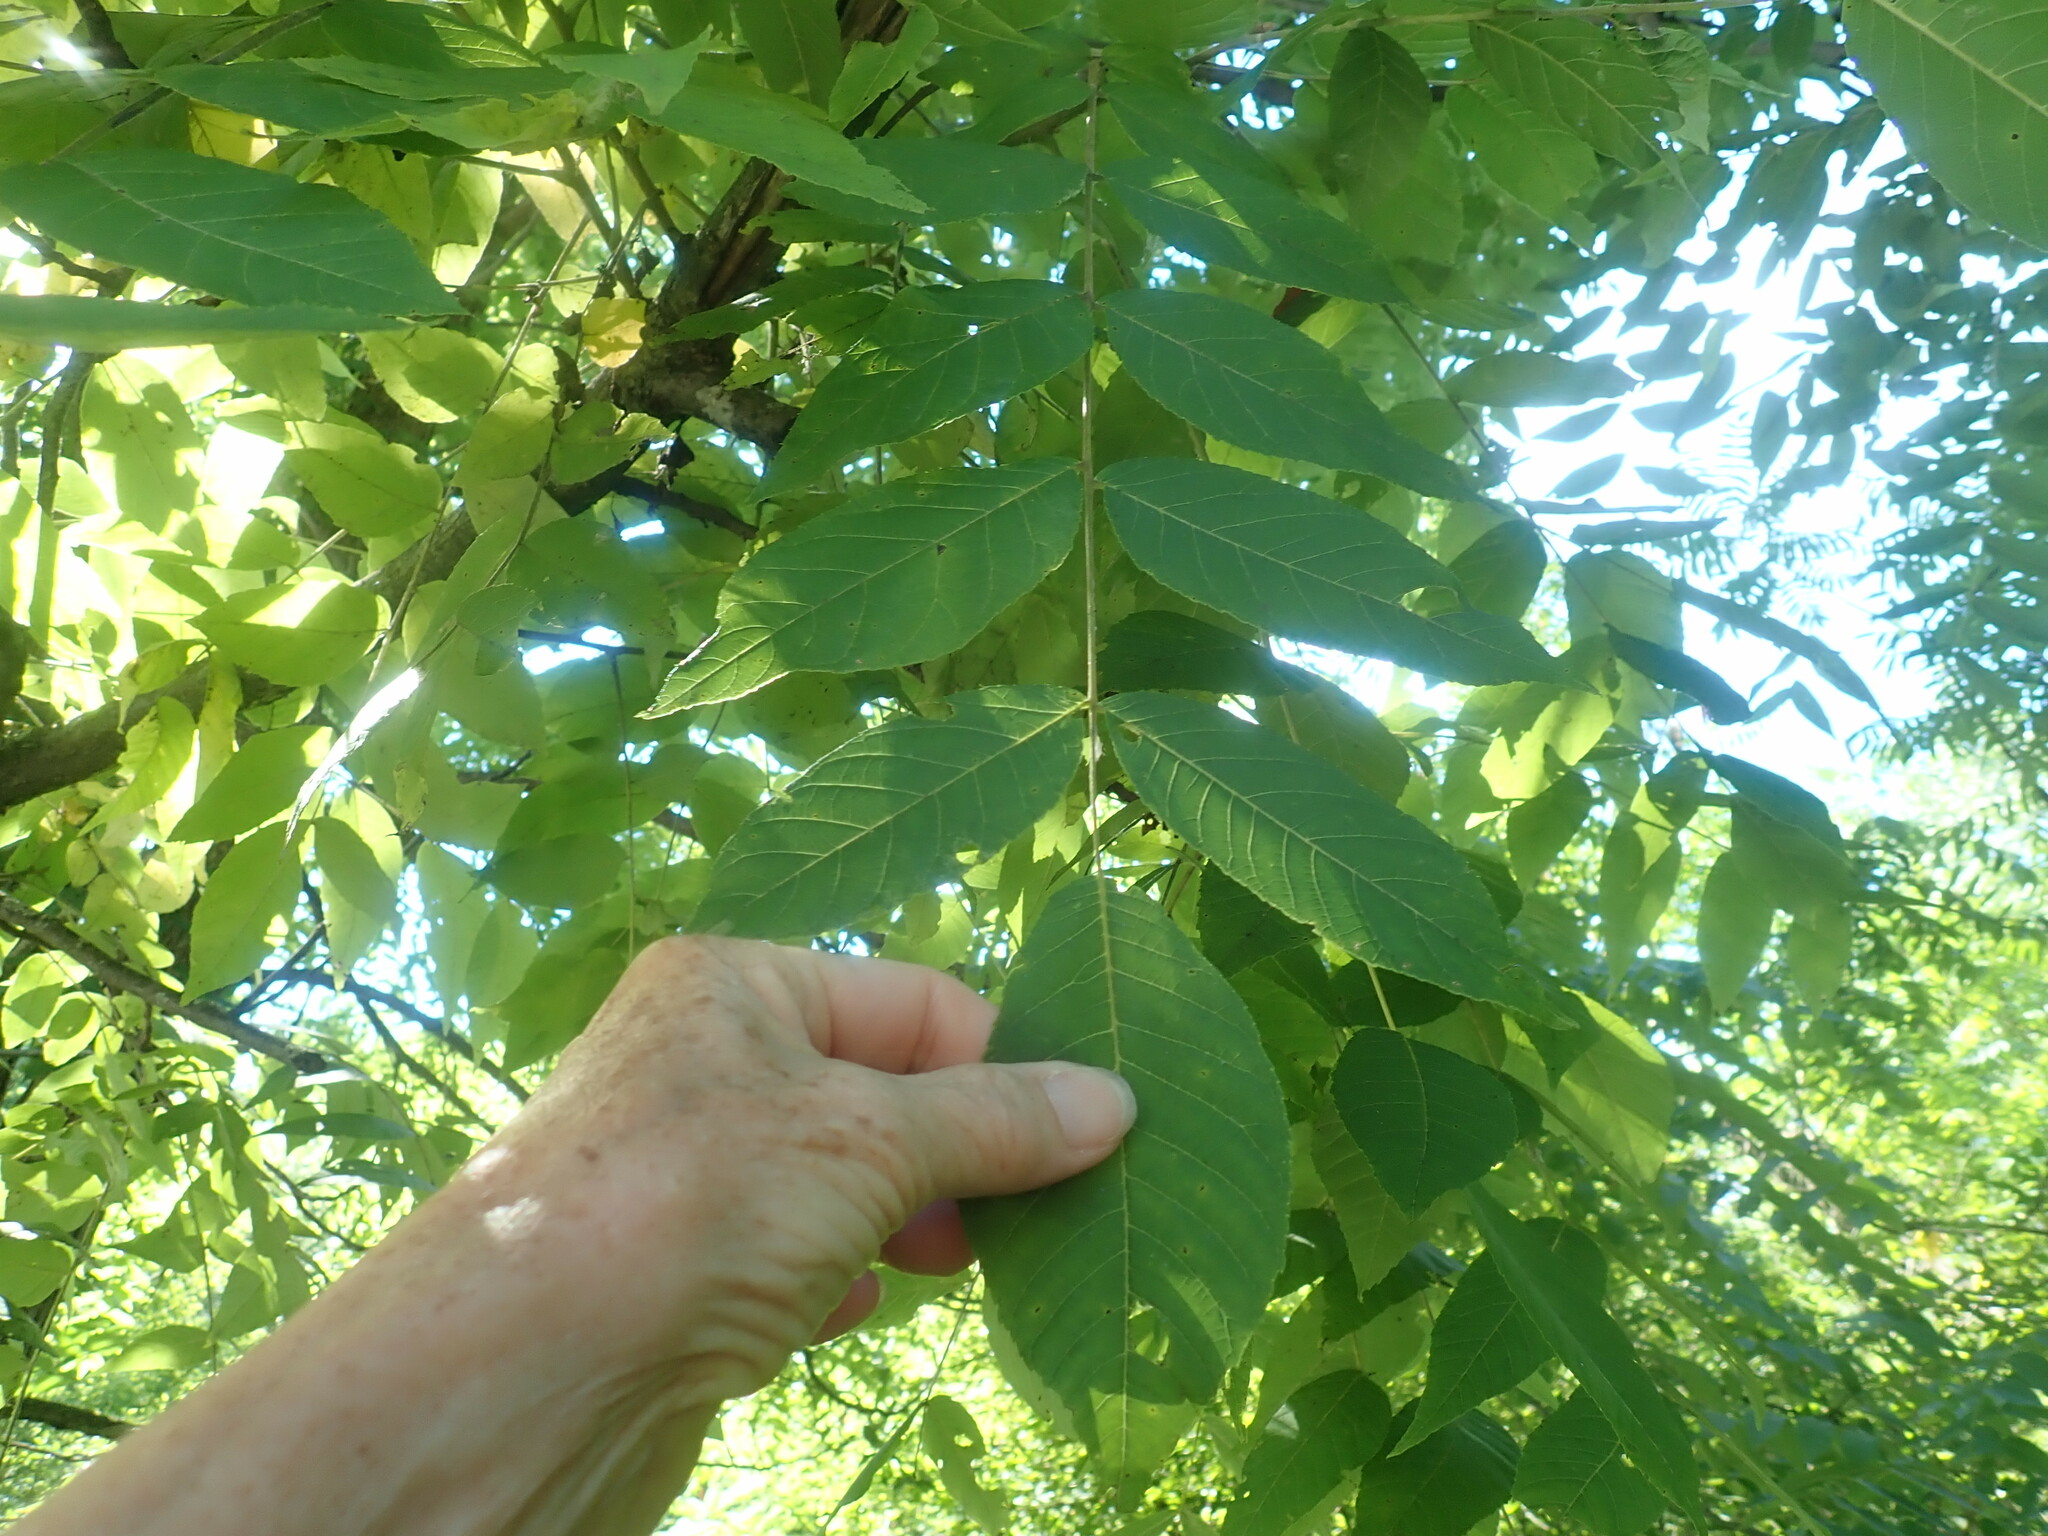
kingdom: Plantae
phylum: Tracheophyta
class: Magnoliopsida
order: Fagales
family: Juglandaceae
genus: Juglans
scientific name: Juglans nigra
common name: Black walnut
